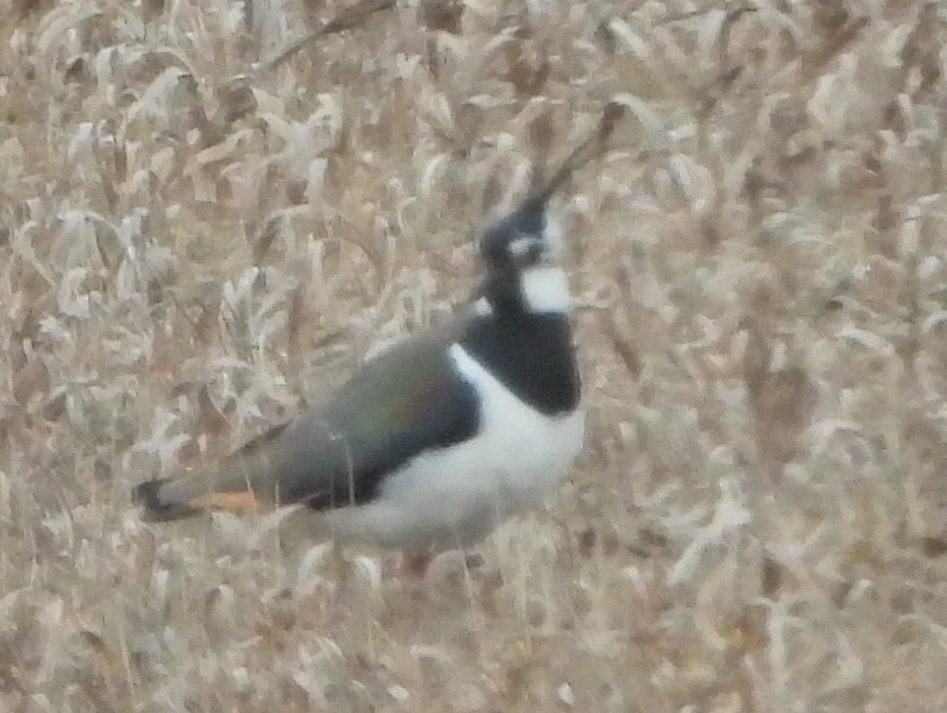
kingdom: Animalia
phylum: Chordata
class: Aves
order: Charadriiformes
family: Charadriidae
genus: Vanellus
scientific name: Vanellus vanellus
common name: Northern lapwing
